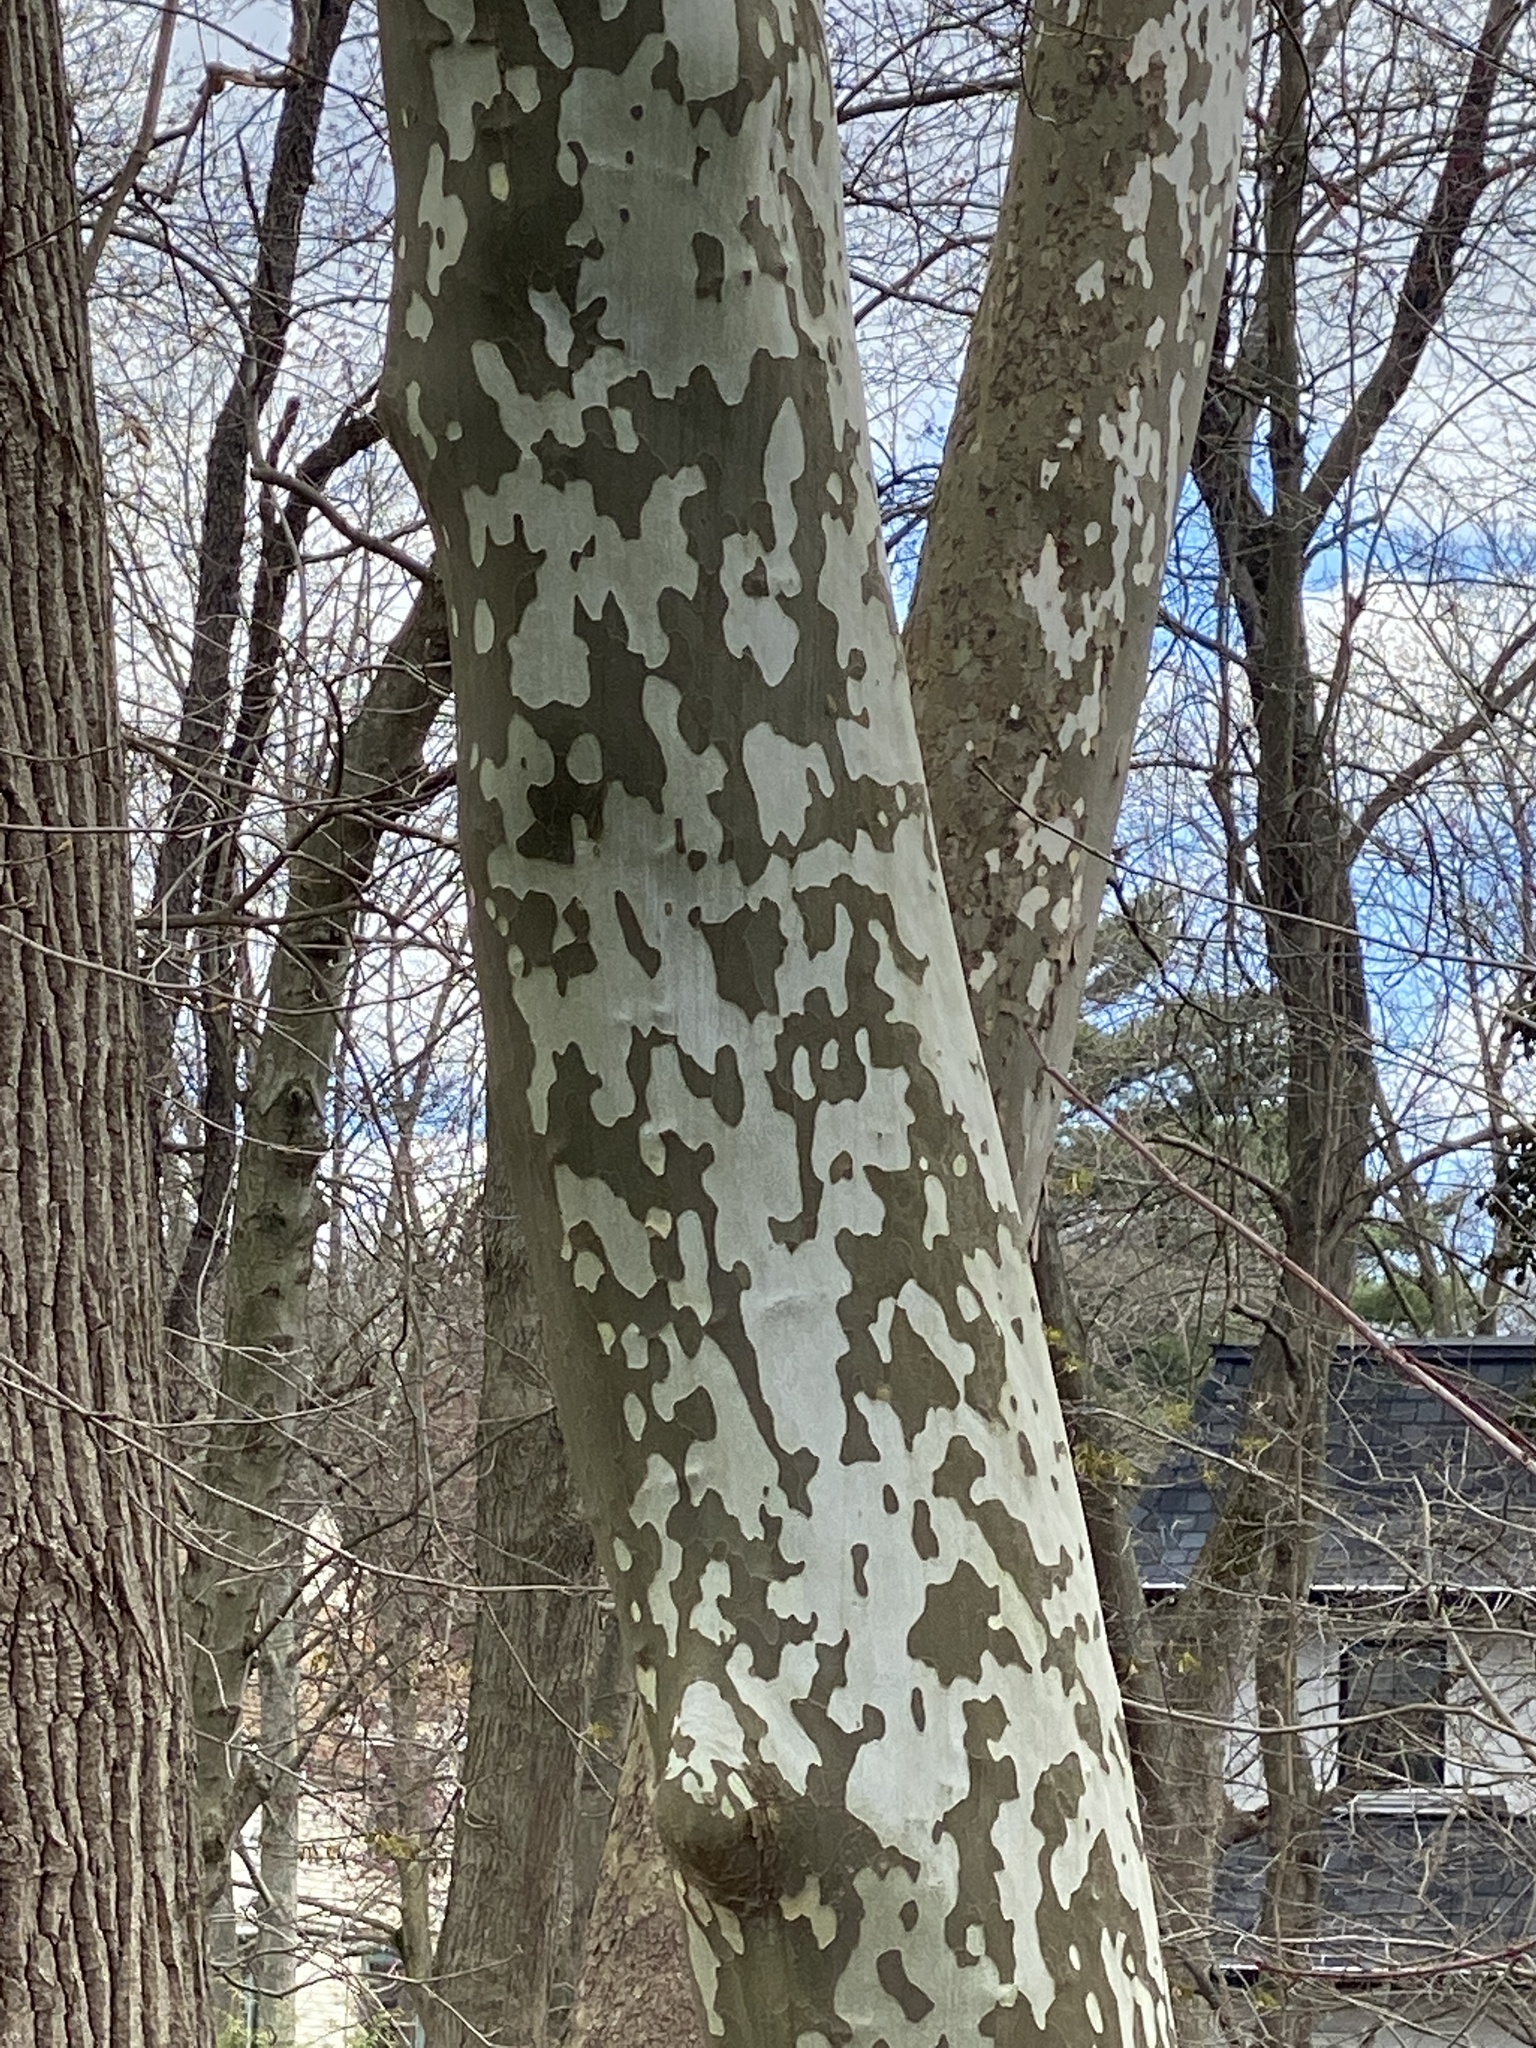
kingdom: Plantae
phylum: Tracheophyta
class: Magnoliopsida
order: Proteales
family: Platanaceae
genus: Platanus
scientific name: Platanus occidentalis
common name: American sycamore
